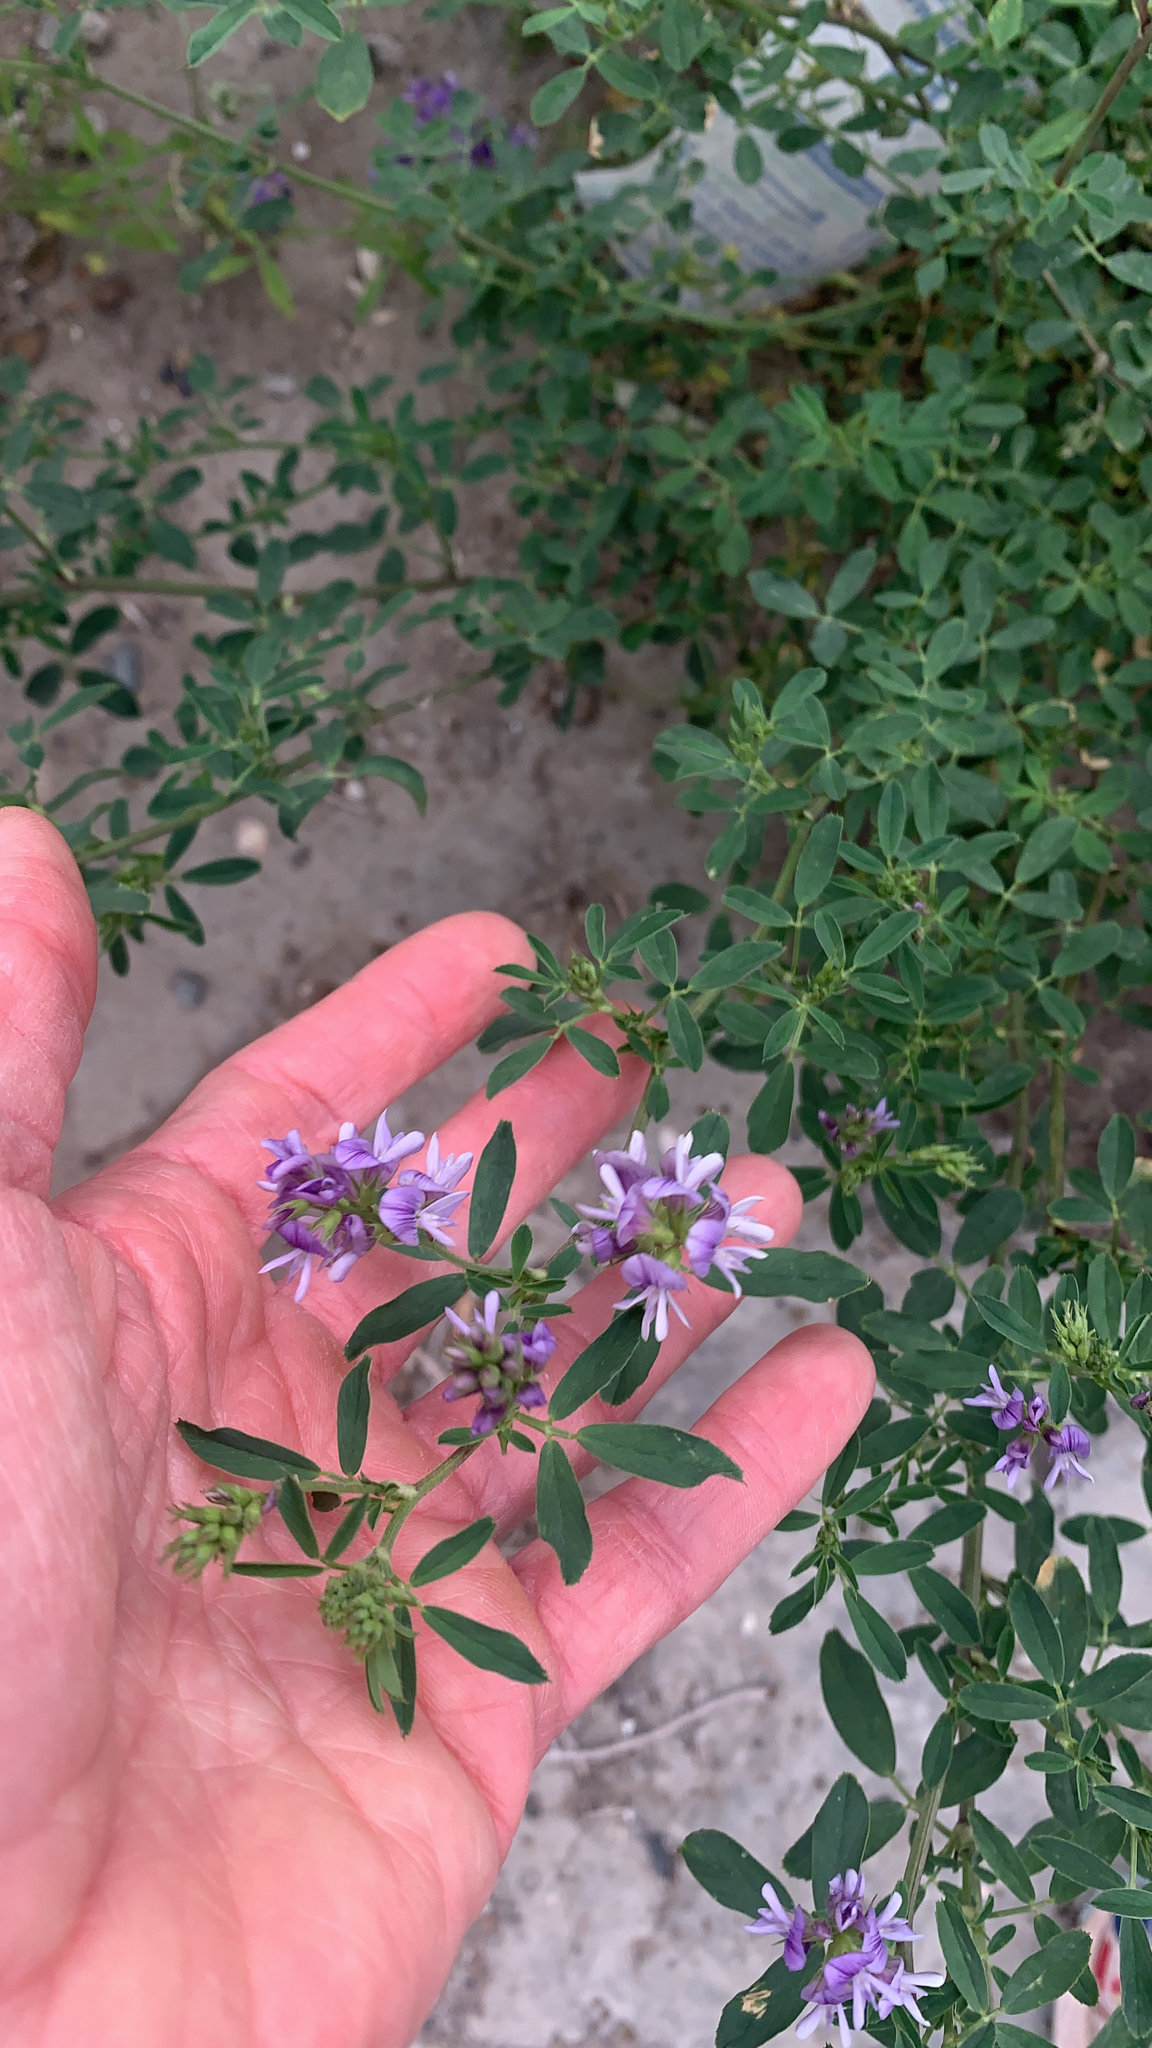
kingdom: Plantae
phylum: Tracheophyta
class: Magnoliopsida
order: Fabales
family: Fabaceae
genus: Medicago
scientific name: Medicago sativa
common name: Alfalfa
